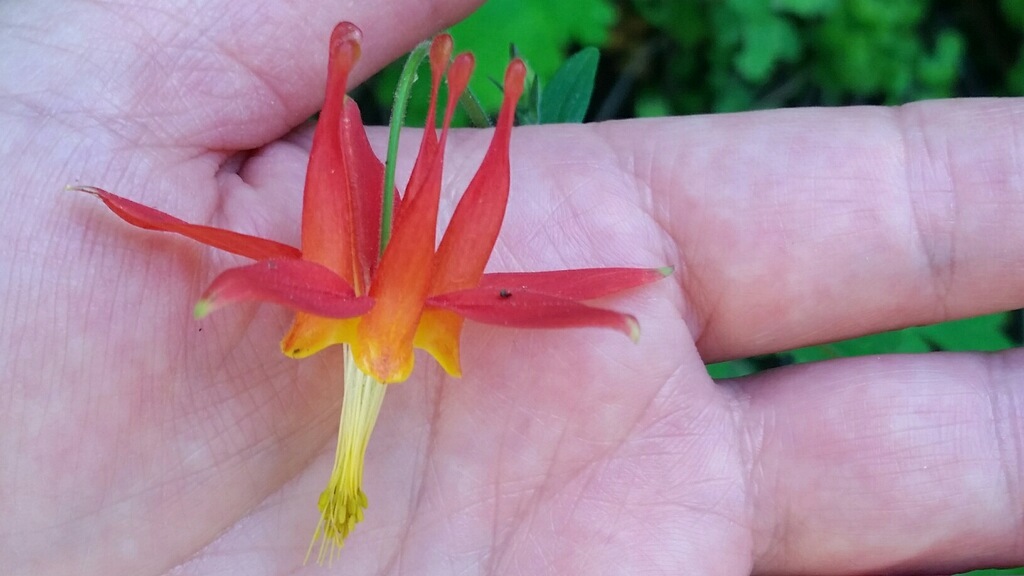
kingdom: Plantae
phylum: Tracheophyta
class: Magnoliopsida
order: Ranunculales
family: Ranunculaceae
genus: Aquilegia
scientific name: Aquilegia formosa
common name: Sitka columbine
